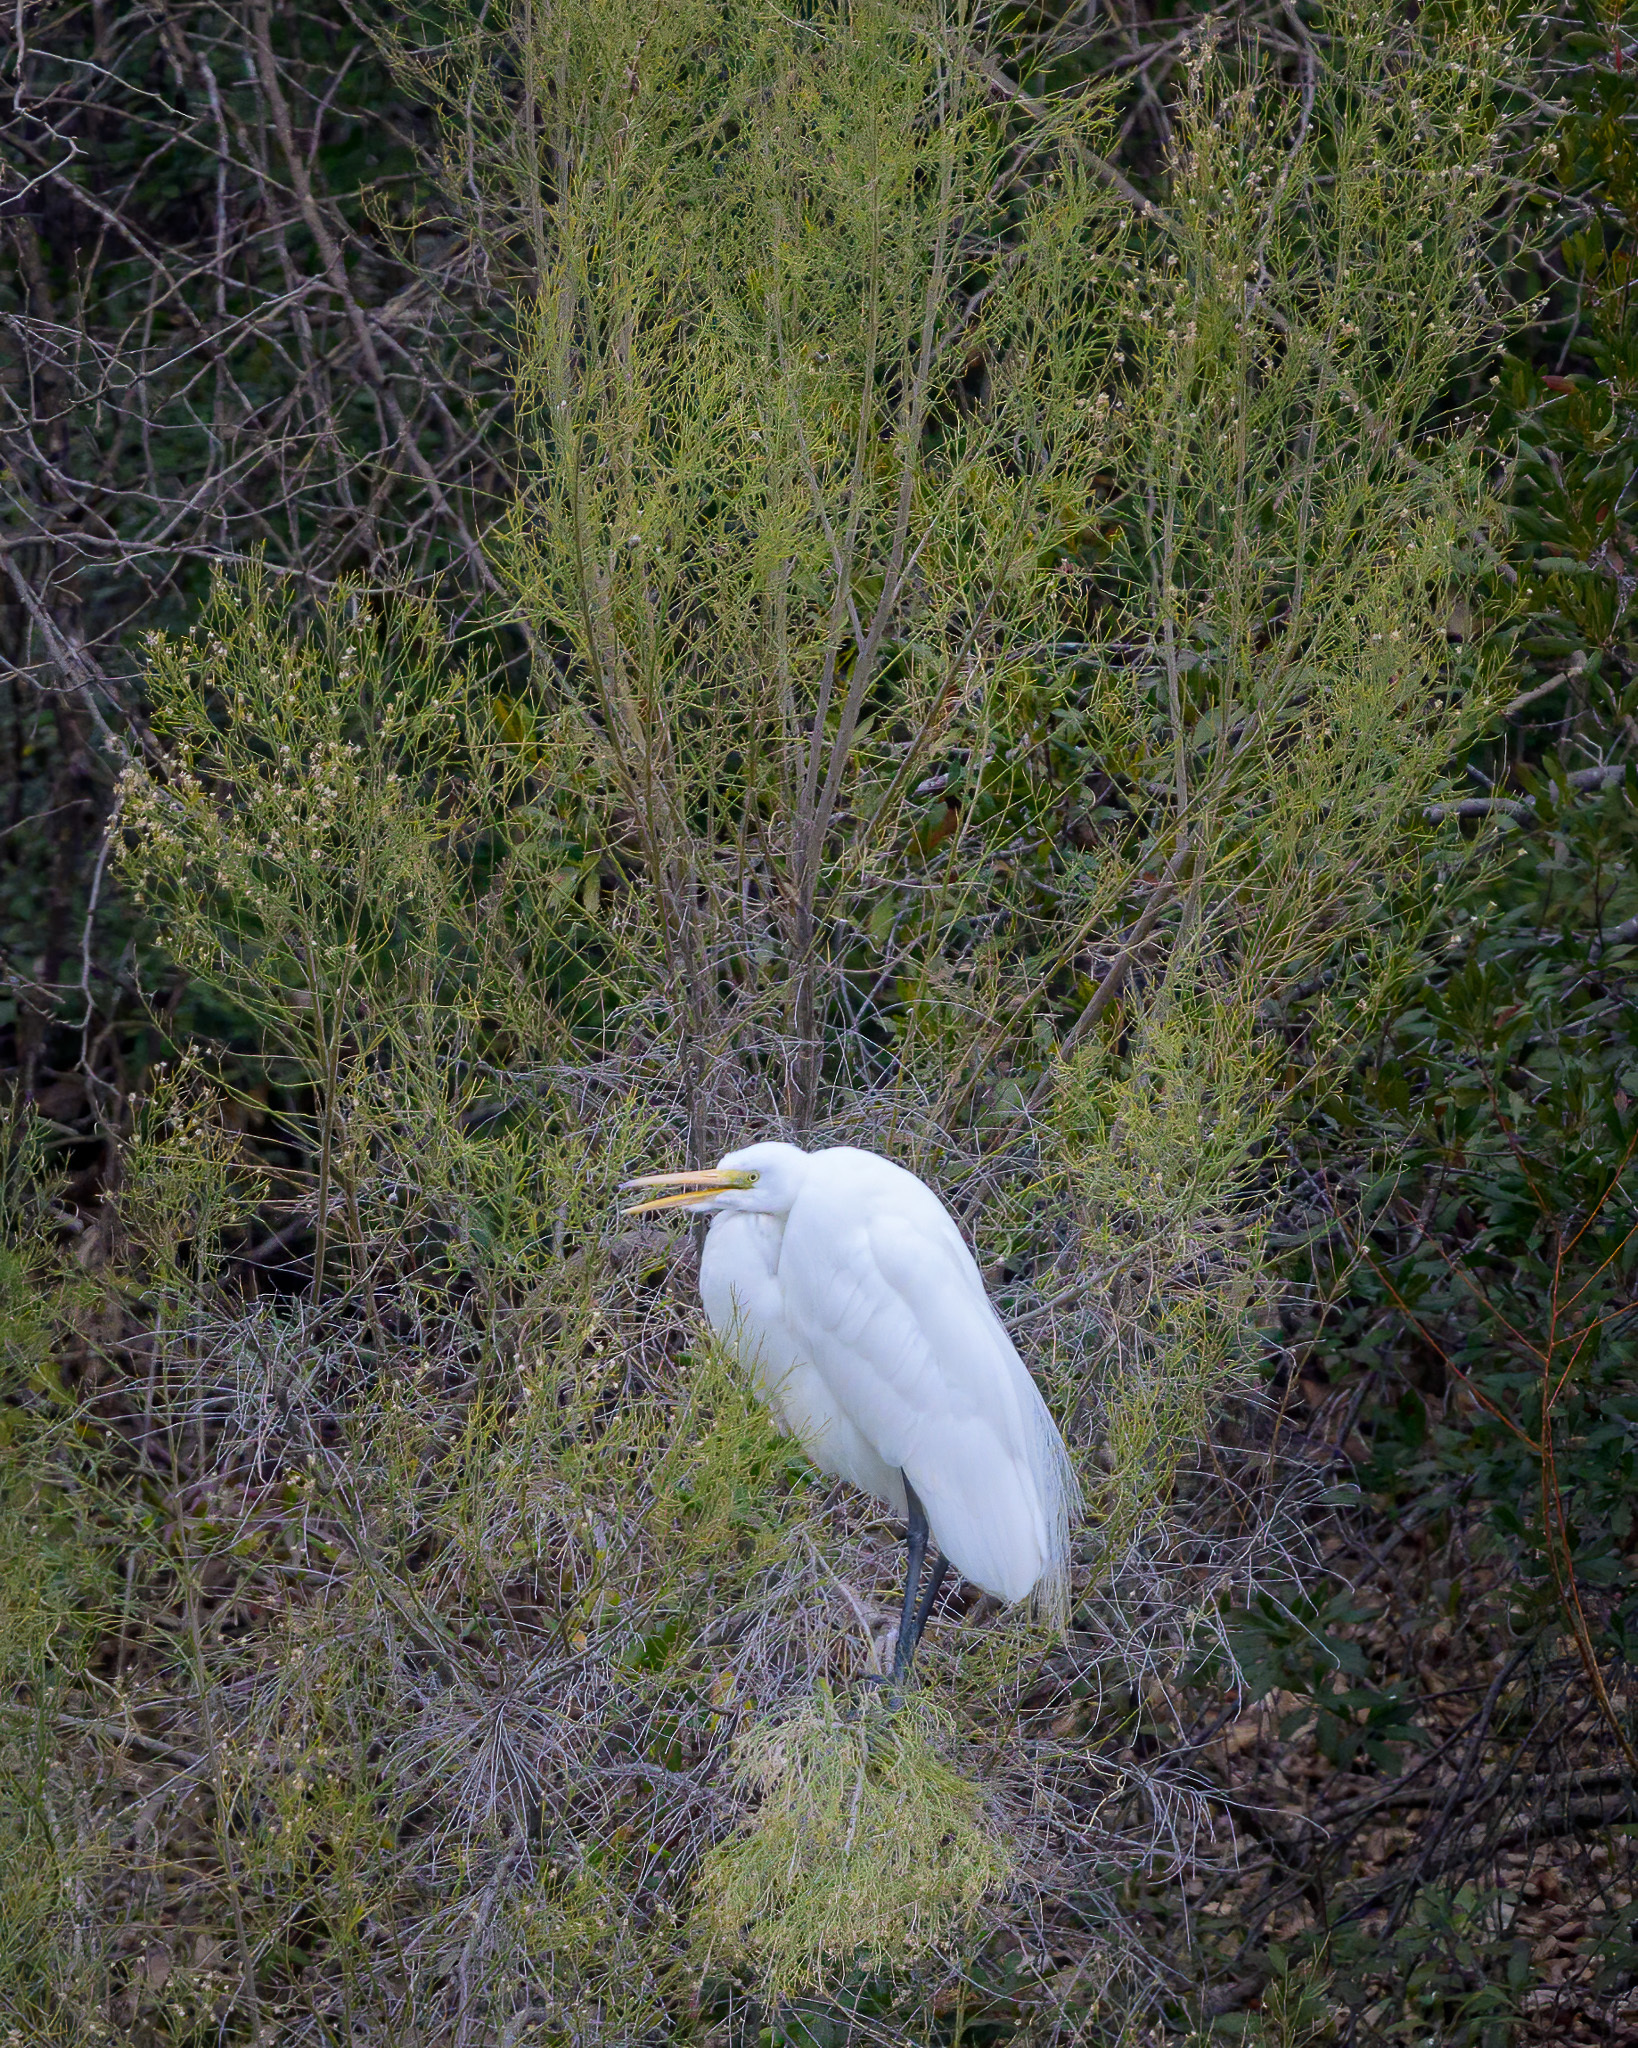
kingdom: Animalia
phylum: Chordata
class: Aves
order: Pelecaniformes
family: Ardeidae
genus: Ardea
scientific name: Ardea alba
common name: Great egret
